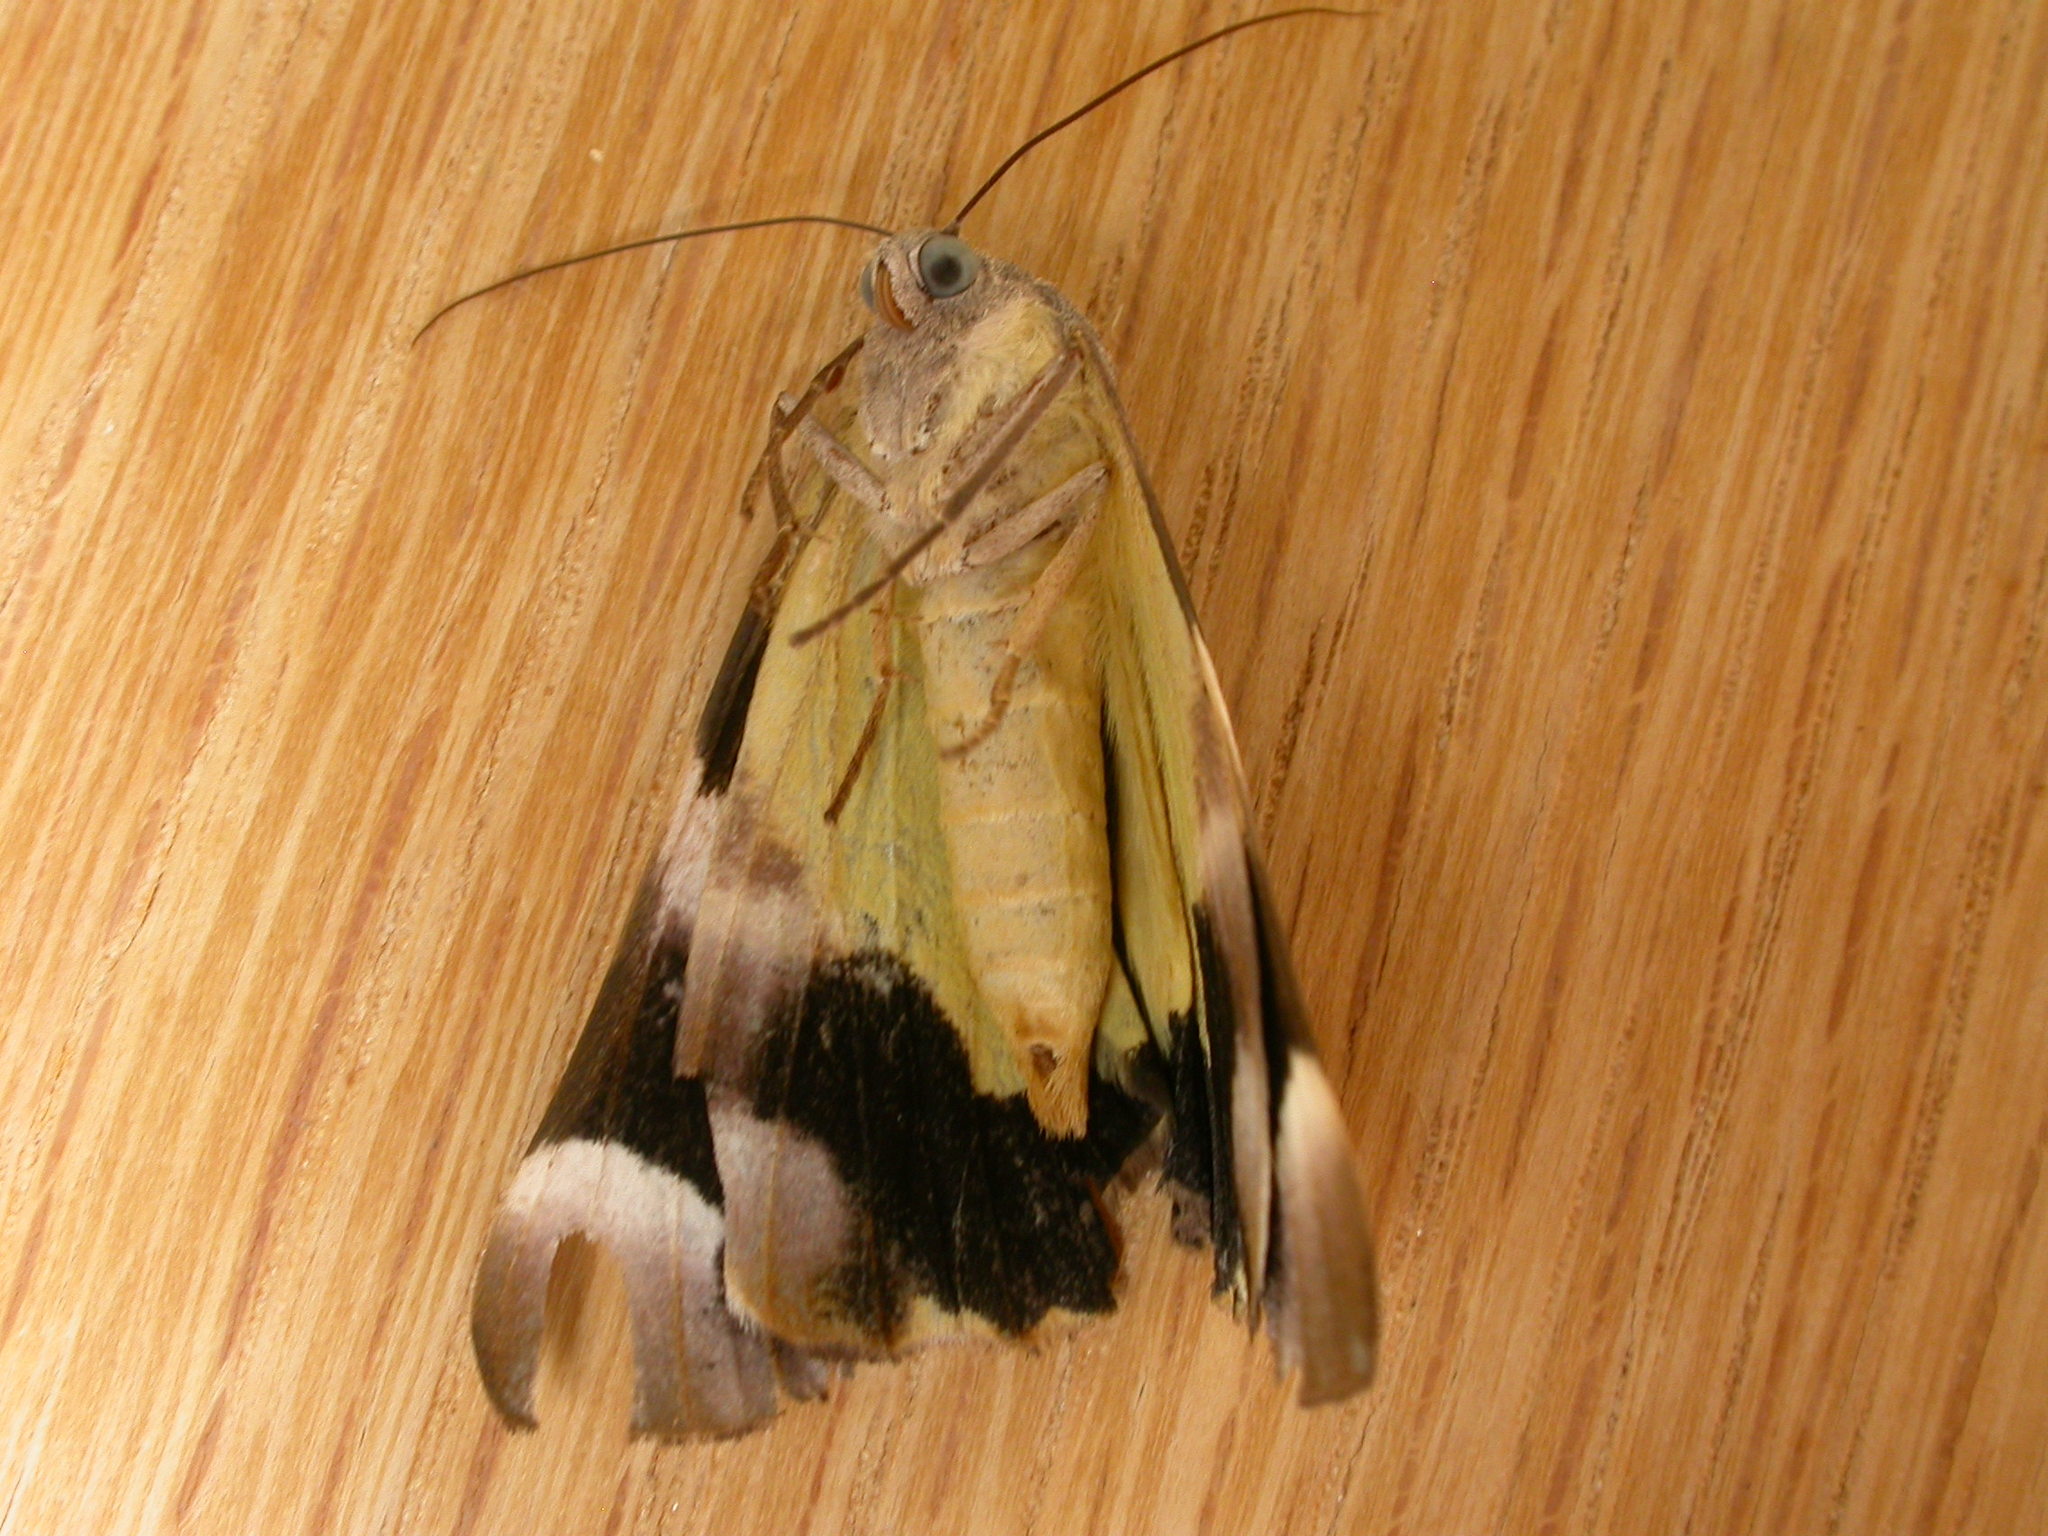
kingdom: Animalia
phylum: Arthropoda
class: Insecta
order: Lepidoptera
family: Geometridae
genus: Niceteria
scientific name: Niceteria macrocosma
